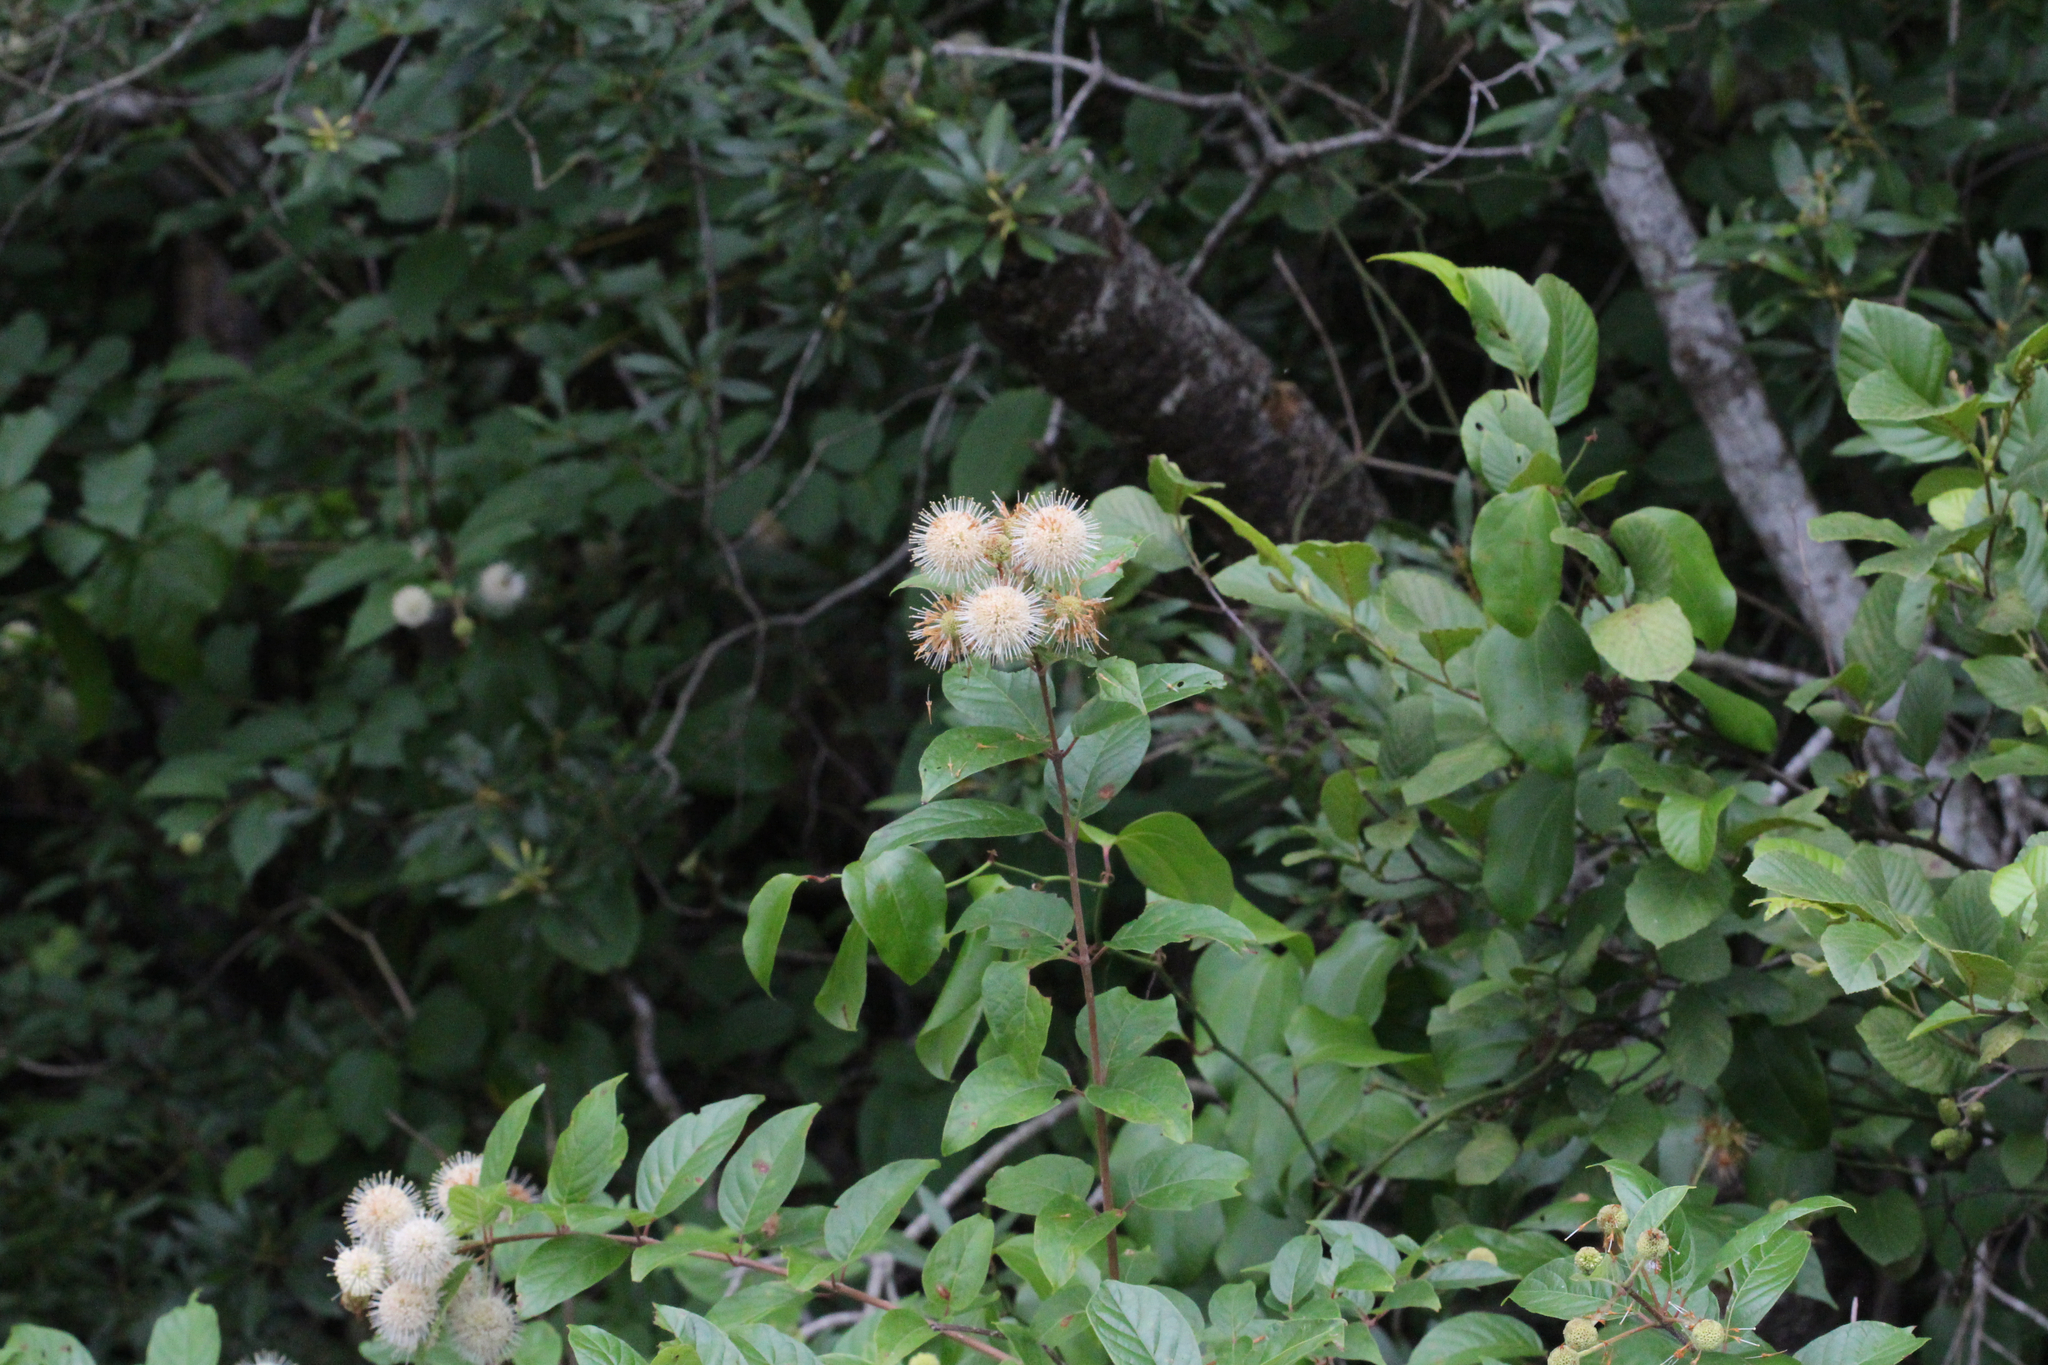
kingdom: Plantae
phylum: Tracheophyta
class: Magnoliopsida
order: Gentianales
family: Rubiaceae
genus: Cephalanthus
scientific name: Cephalanthus occidentalis
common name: Button-willow
